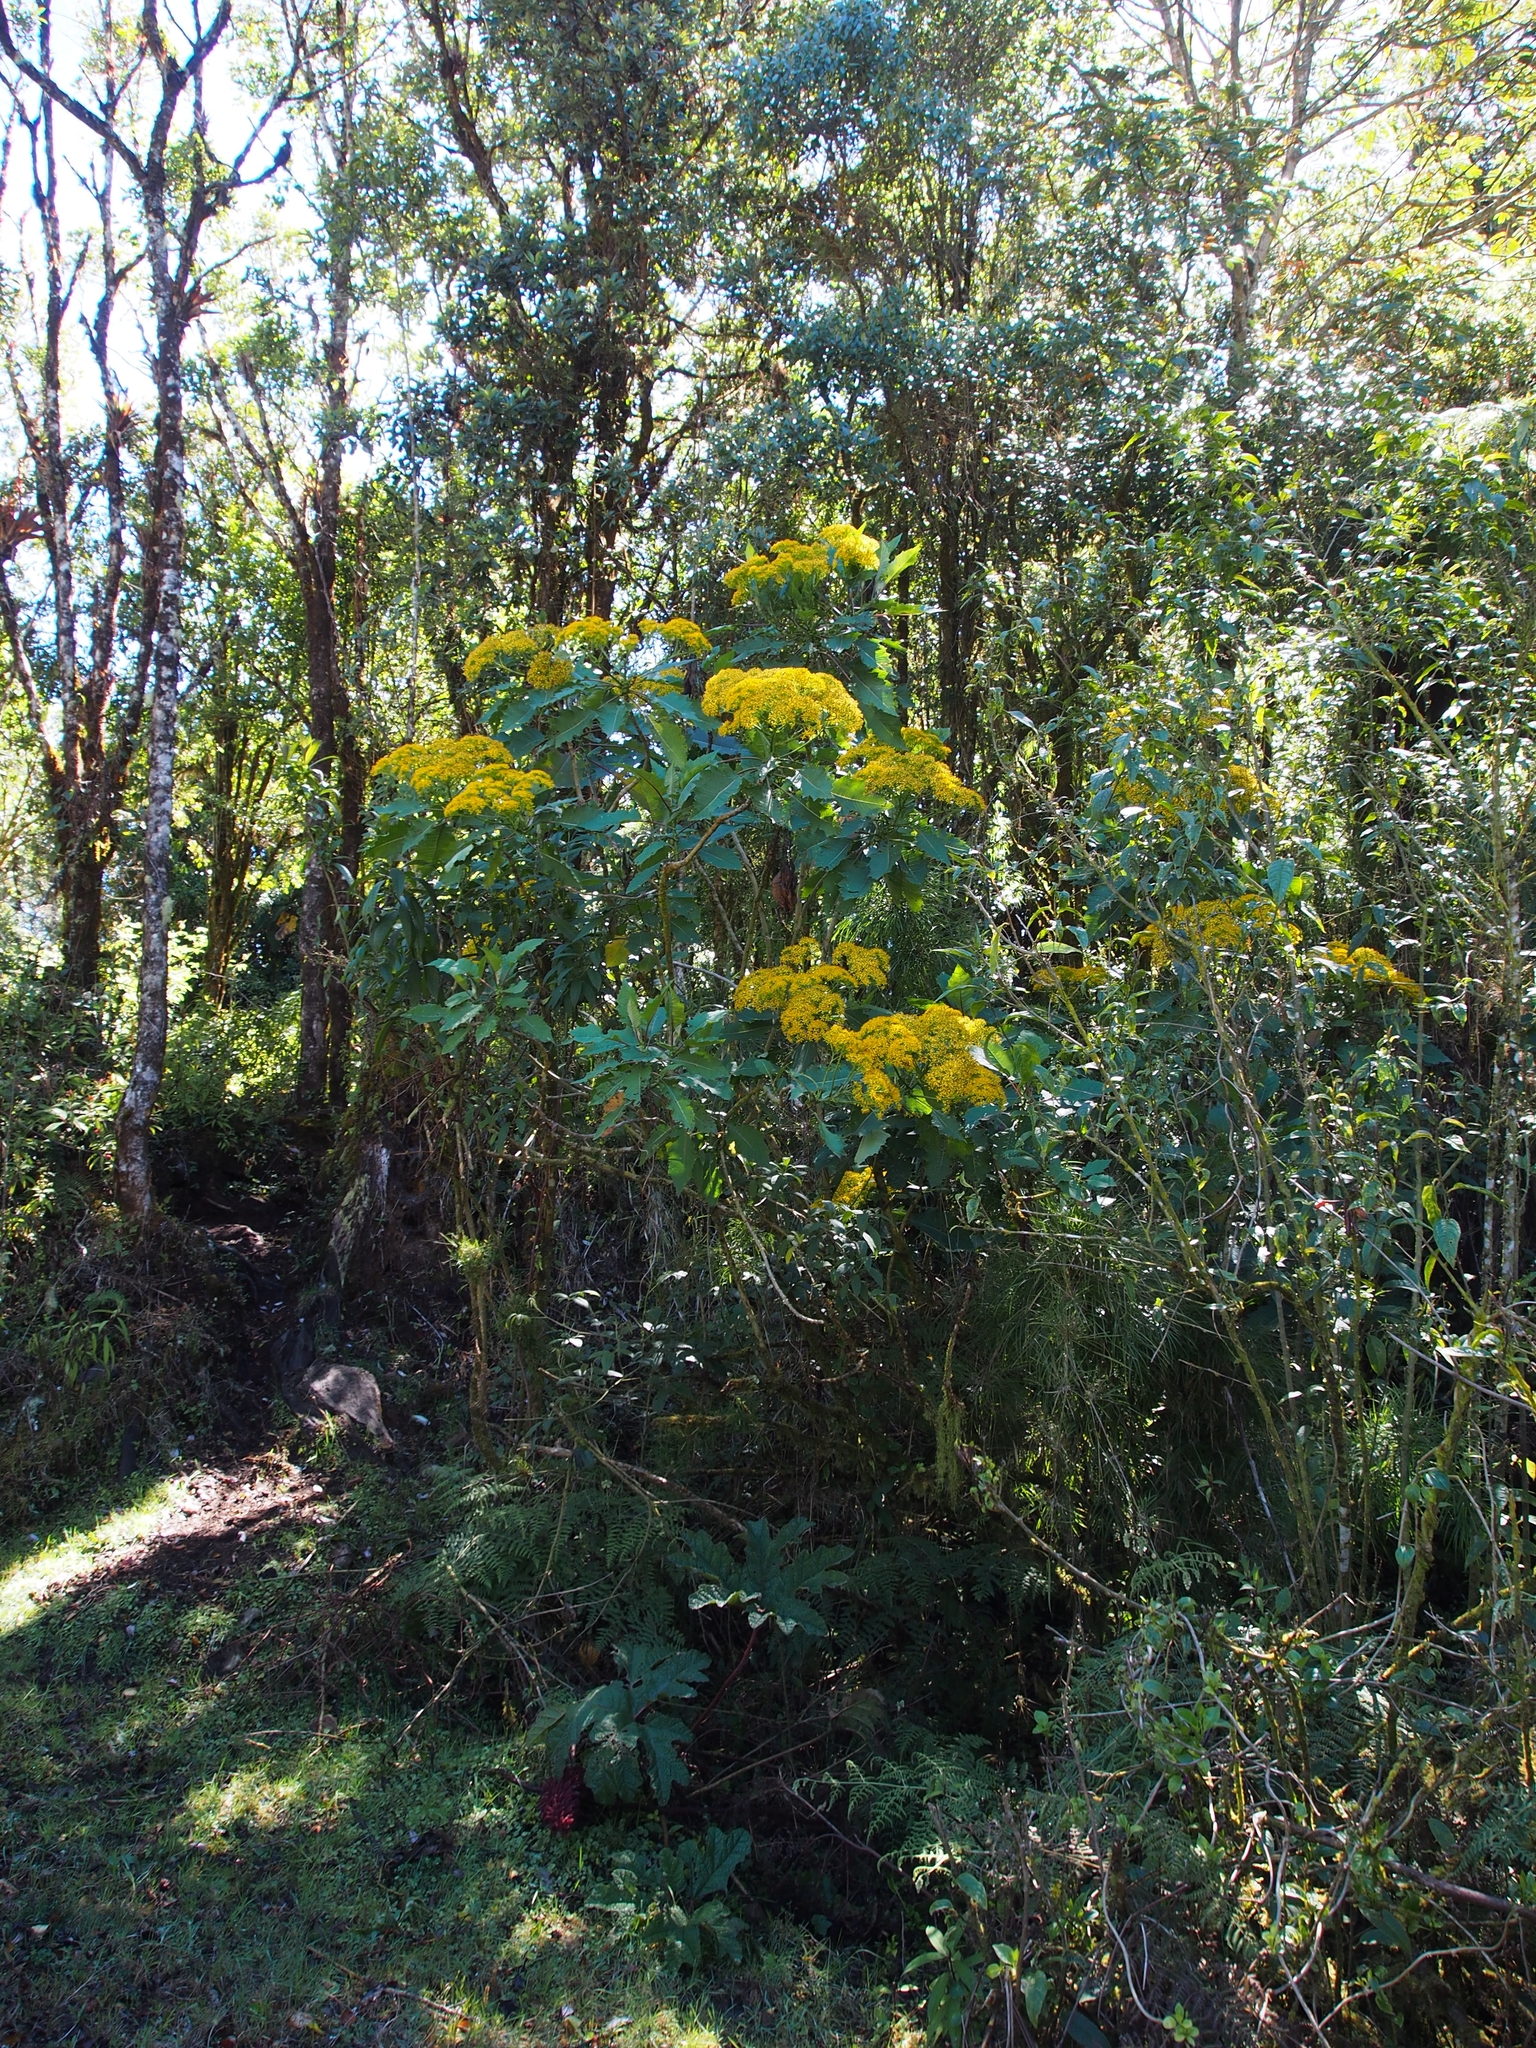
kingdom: Plantae
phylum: Tracheophyta
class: Magnoliopsida
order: Asterales
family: Asteraceae
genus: Jessea
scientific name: Jessea multivenia
